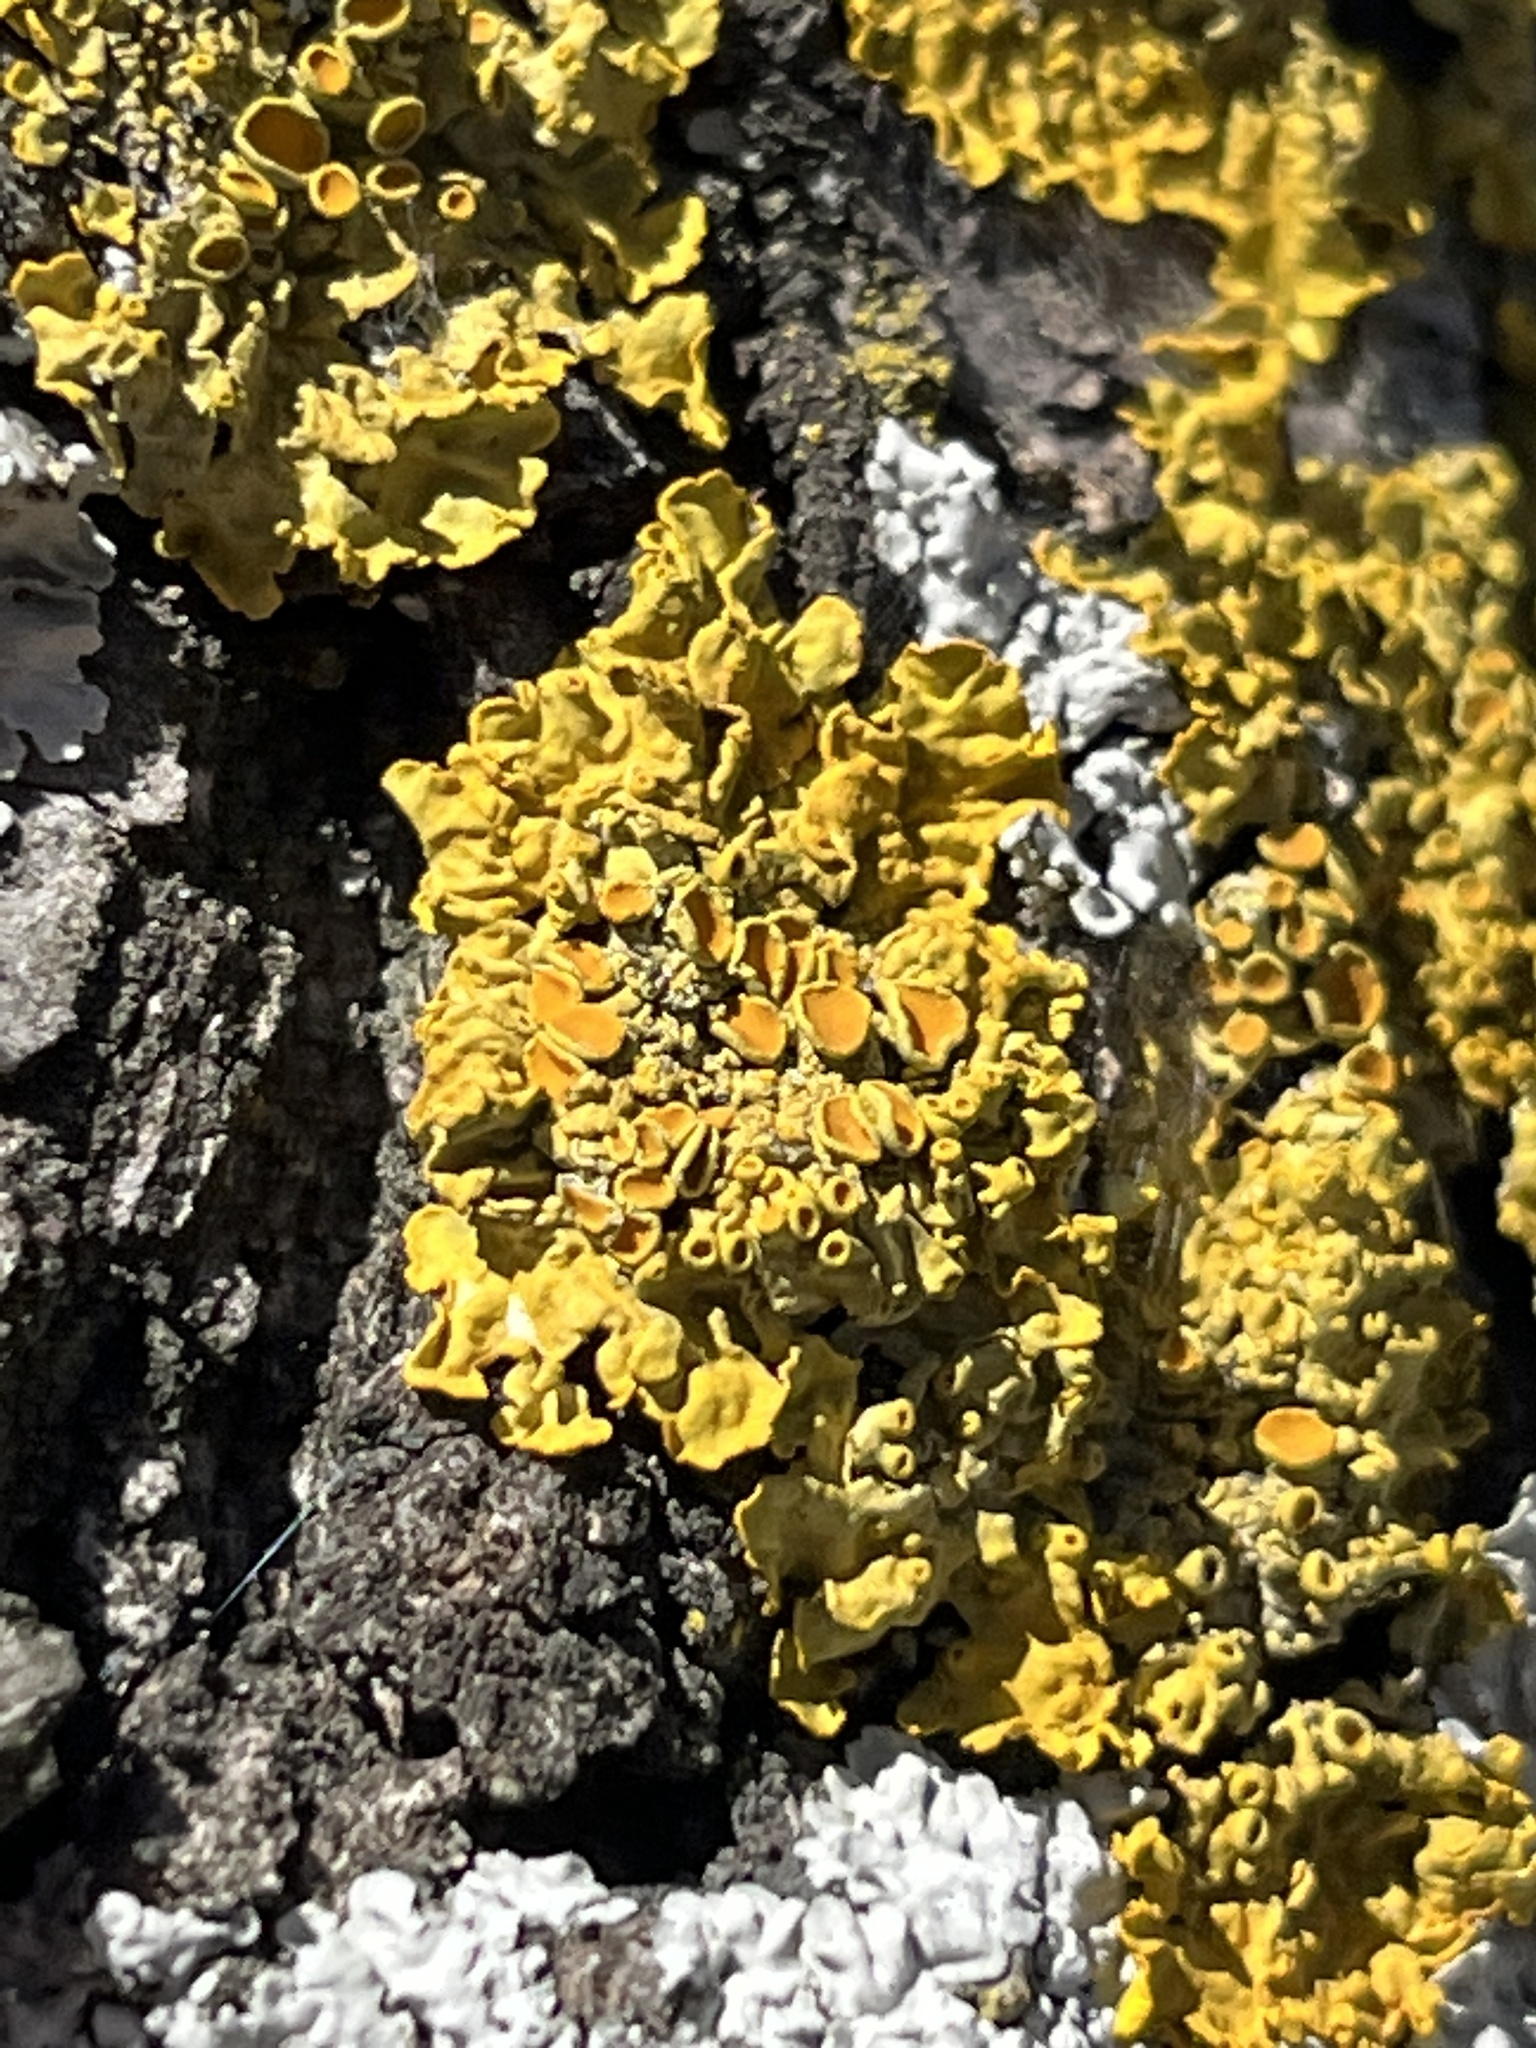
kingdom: Fungi
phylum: Ascomycota
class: Lecanoromycetes
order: Teloschistales
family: Teloschistaceae
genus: Xanthoria
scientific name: Xanthoria parietina
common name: Common orange lichen
